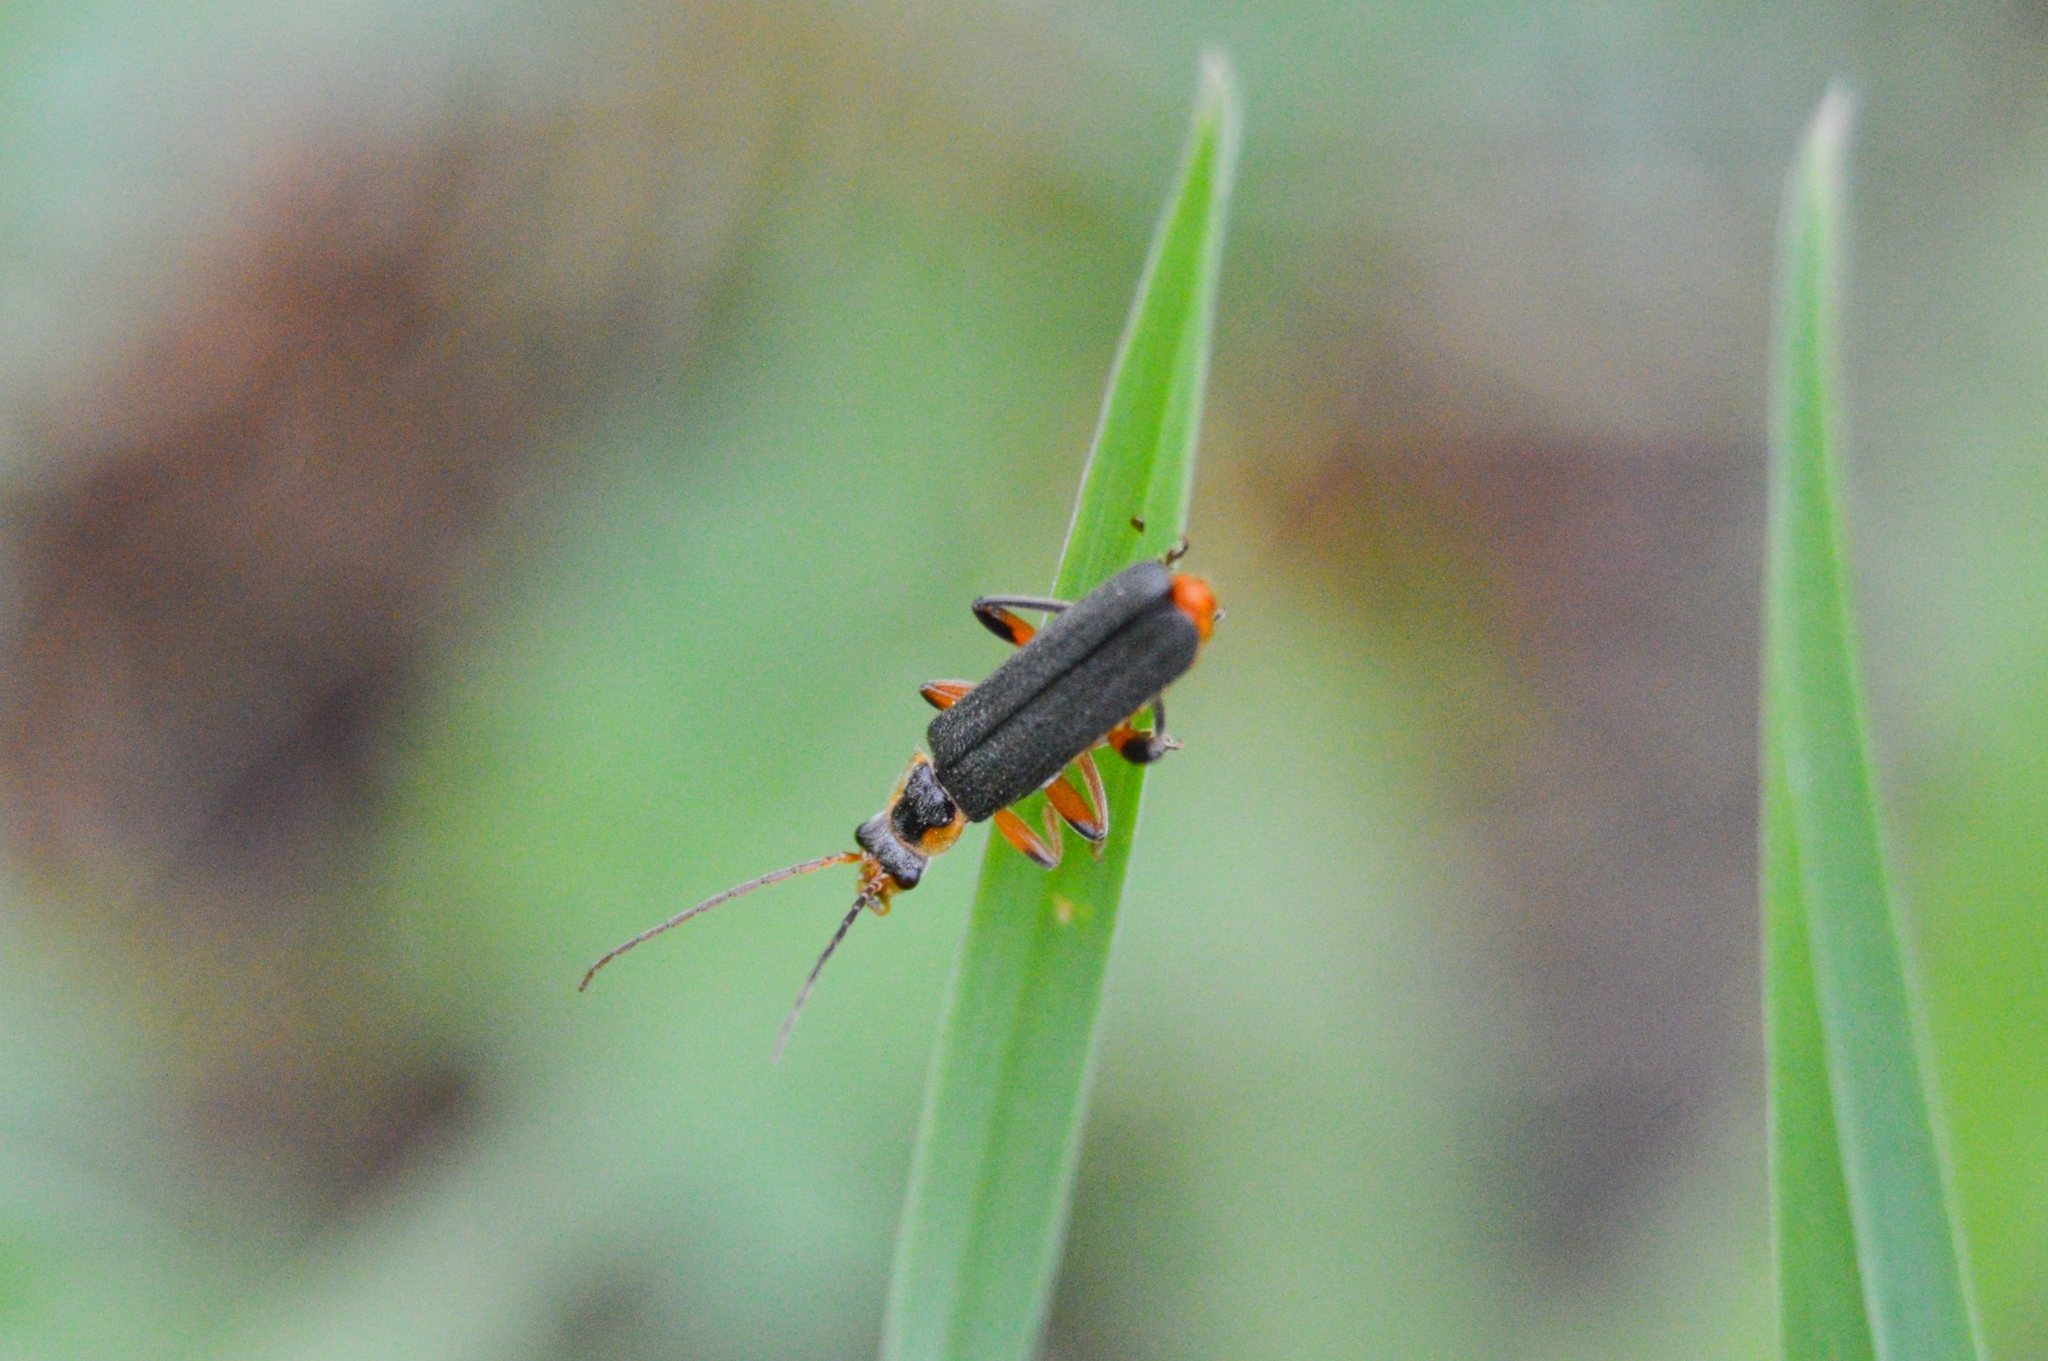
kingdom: Animalia
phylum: Arthropoda
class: Insecta
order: Coleoptera
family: Cantharidae
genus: Cantharis
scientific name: Cantharis nigricans
